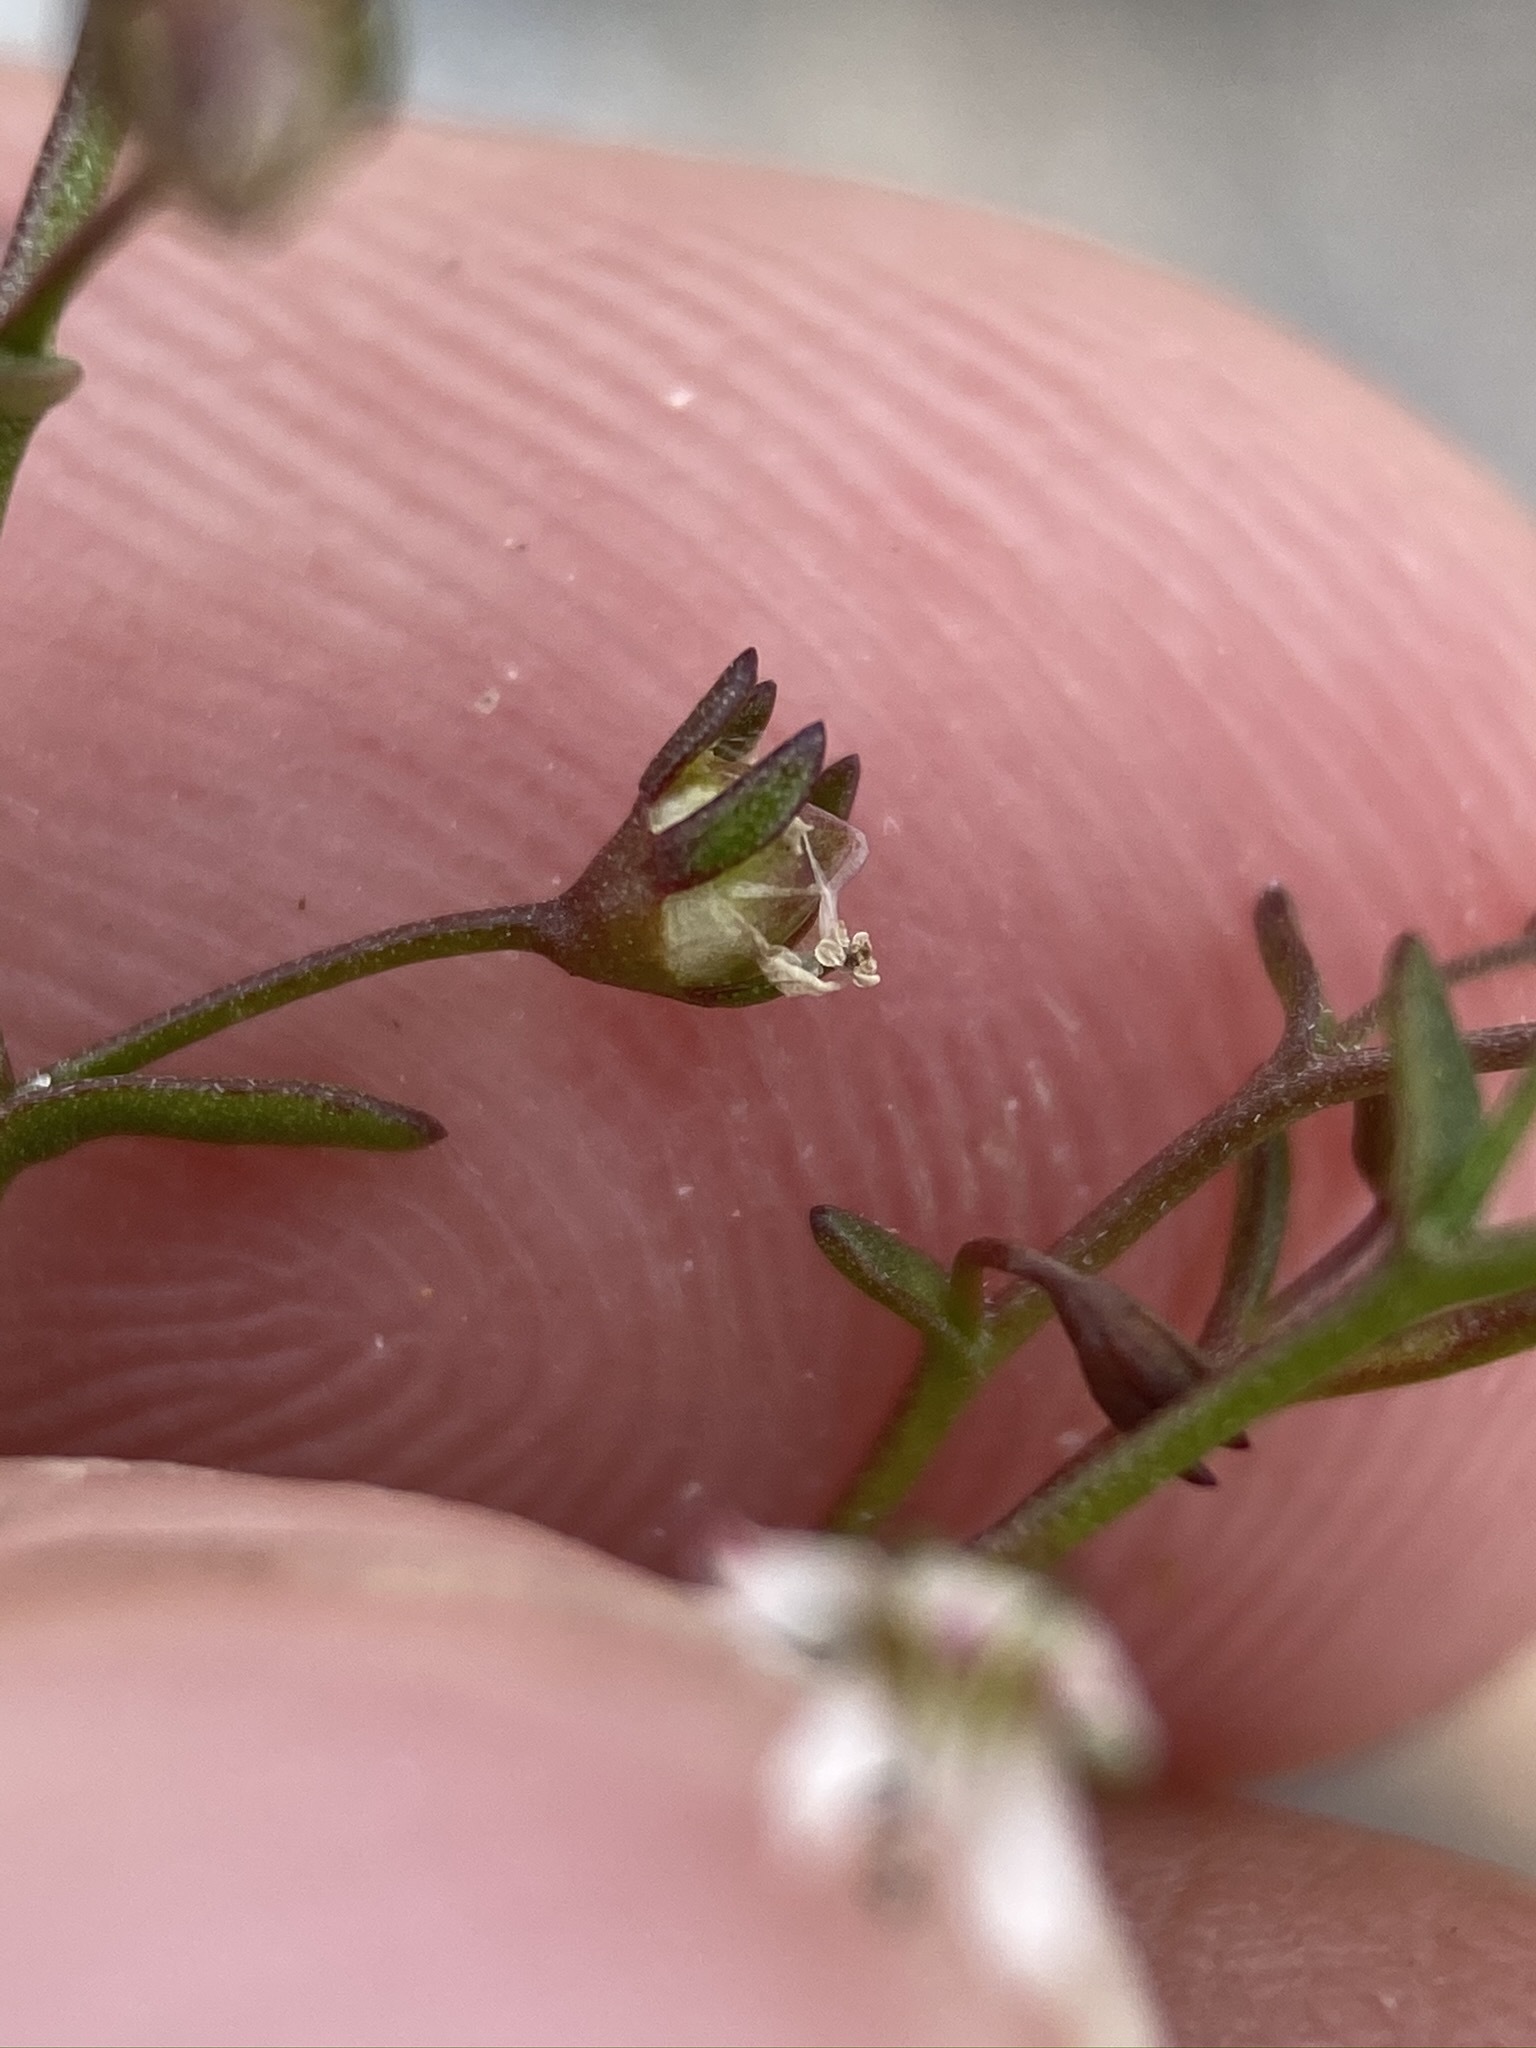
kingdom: Plantae
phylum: Tracheophyta
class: Magnoliopsida
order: Asterales
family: Campanulaceae
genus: Nemacladus
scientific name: Nemacladus orientalis
